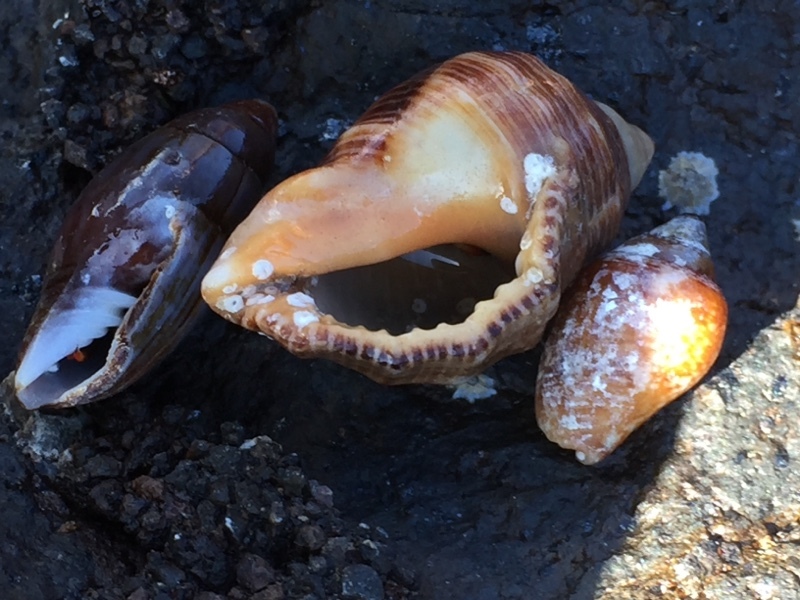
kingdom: Animalia
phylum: Mollusca
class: Gastropoda
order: Neogastropoda
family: Columbellidae
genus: Columbella
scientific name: Columbella adansoni
